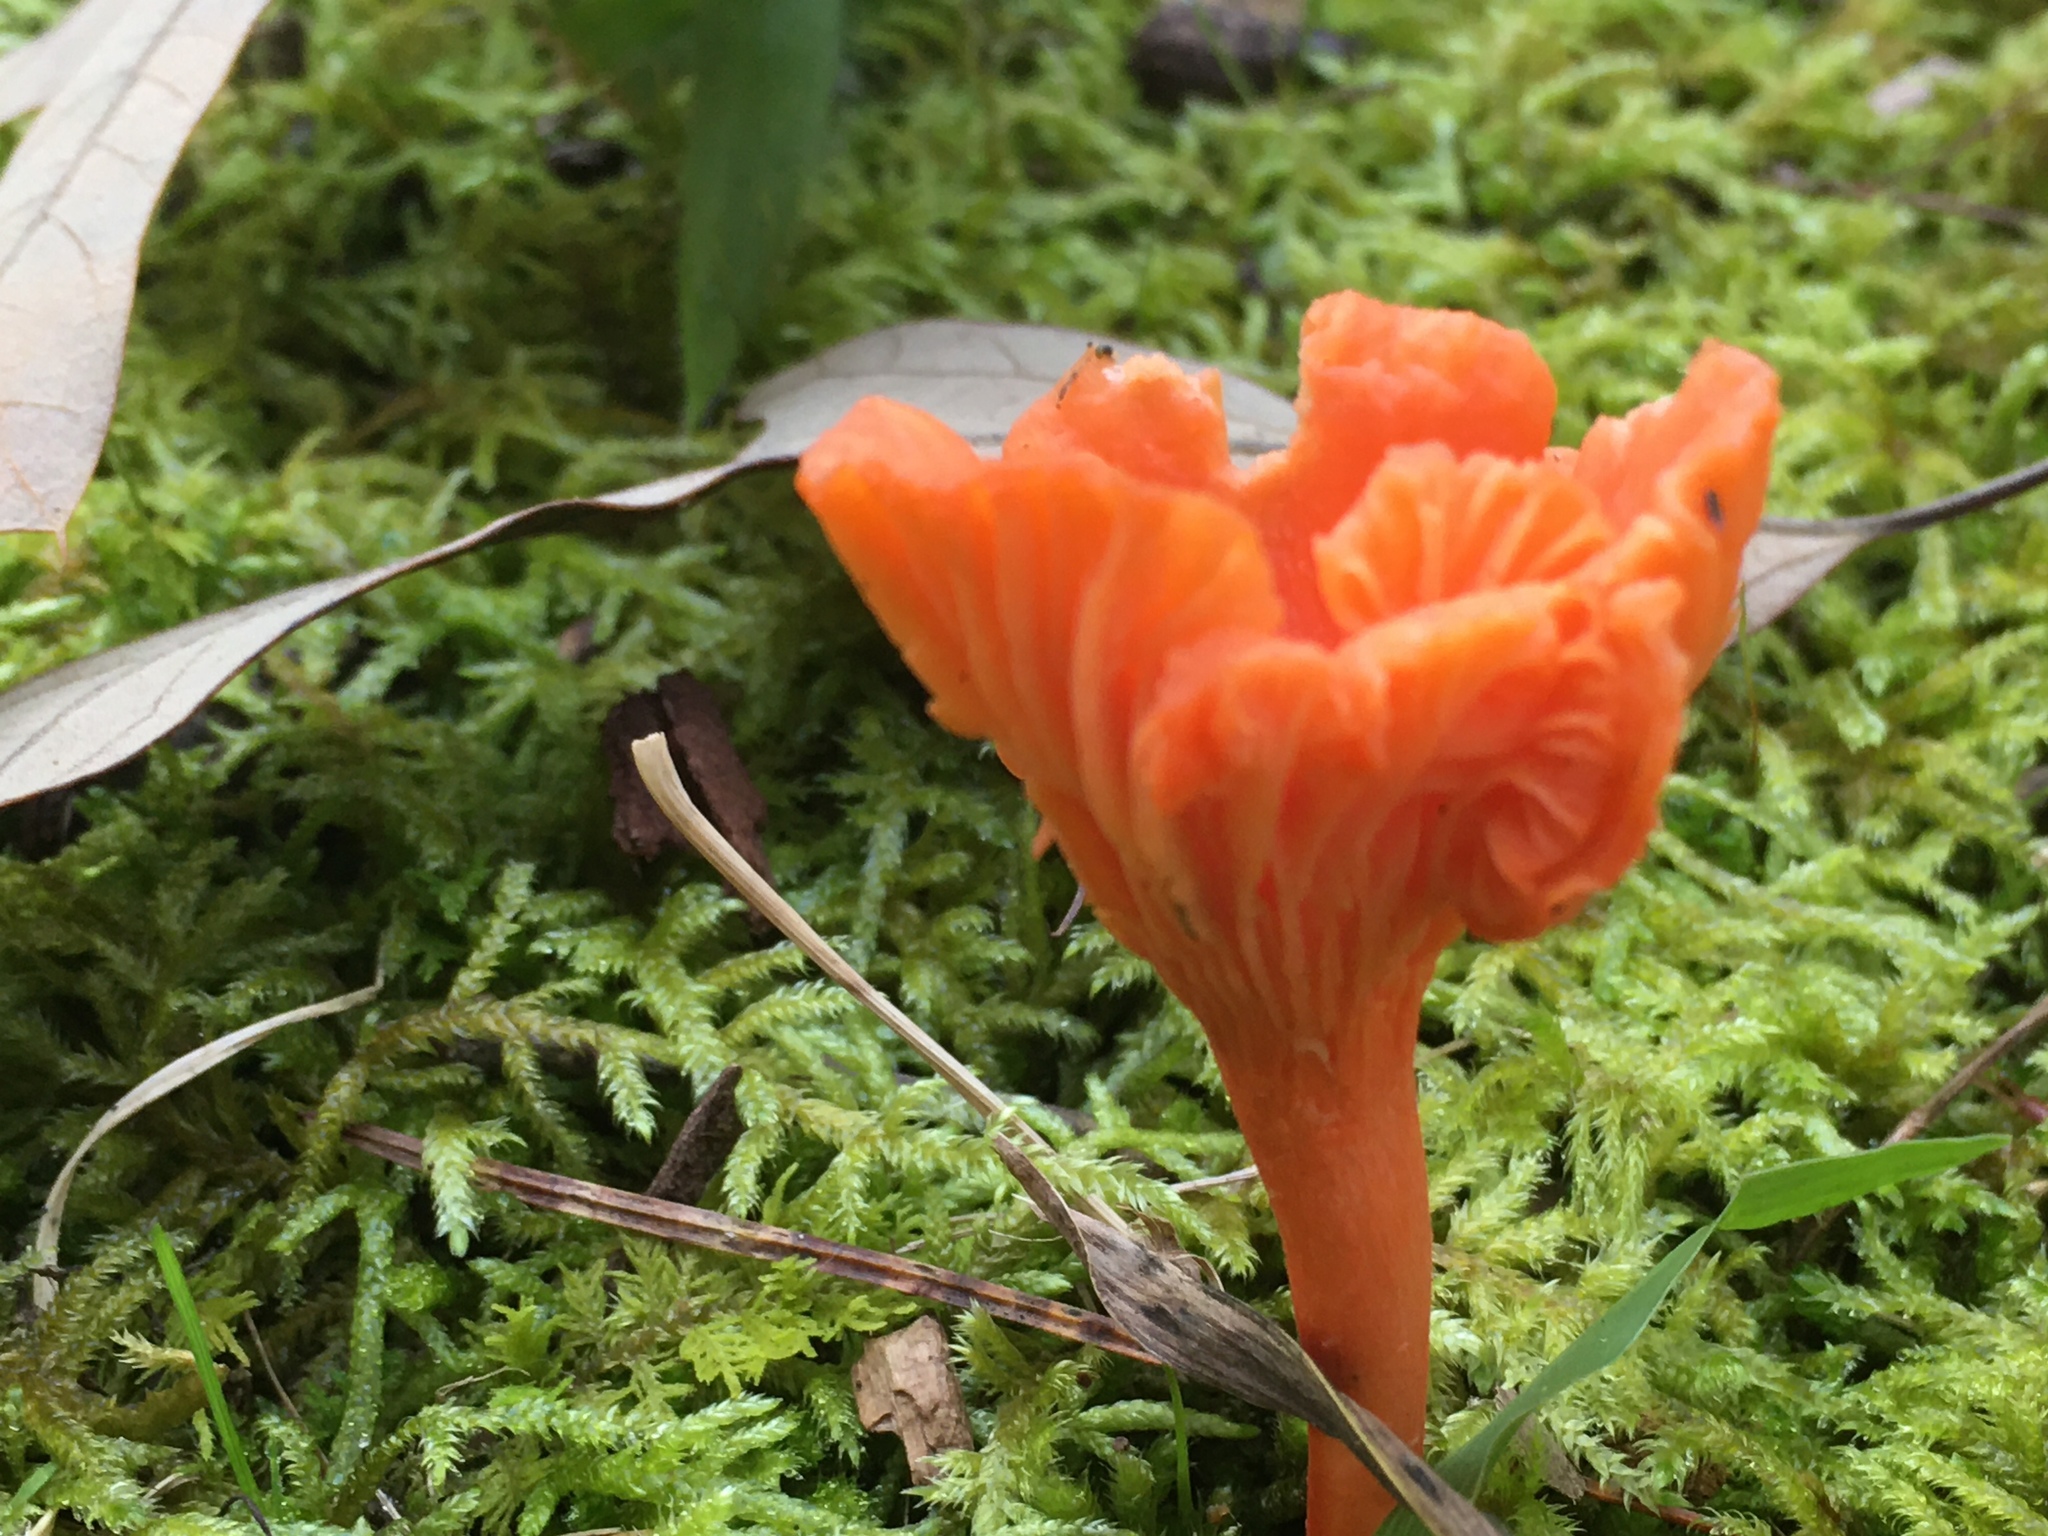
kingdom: Fungi
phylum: Basidiomycota
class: Agaricomycetes
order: Cantharellales
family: Hydnaceae
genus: Cantharellus
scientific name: Cantharellus cinnabarinus
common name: Cinnabar chanterelle
